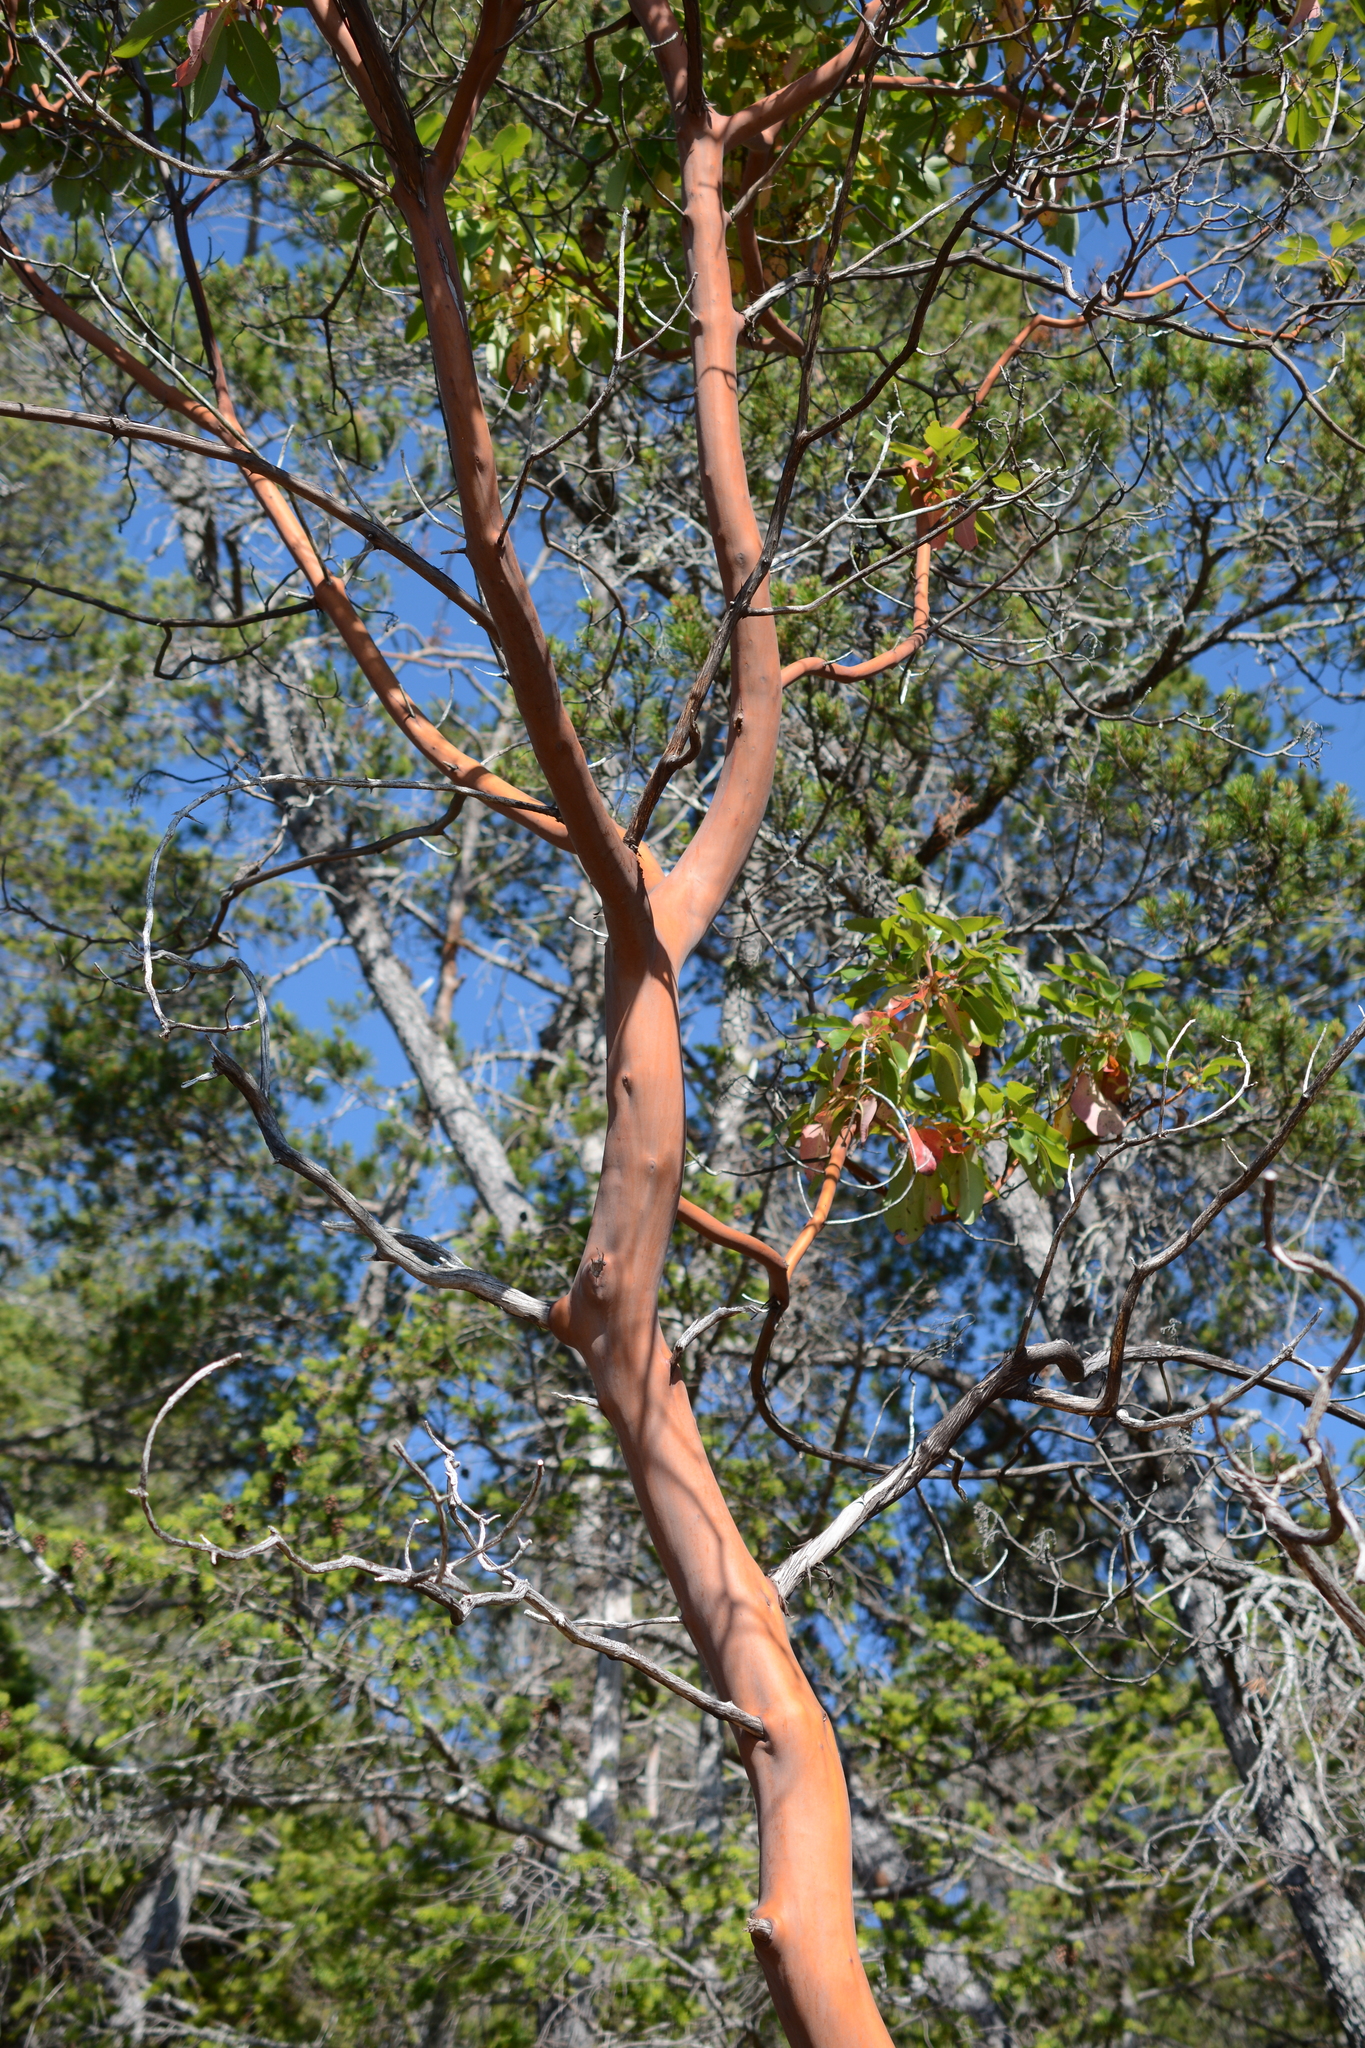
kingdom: Plantae
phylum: Tracheophyta
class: Magnoliopsida
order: Ericales
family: Ericaceae
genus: Arbutus
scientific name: Arbutus menziesii
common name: Pacific madrone
